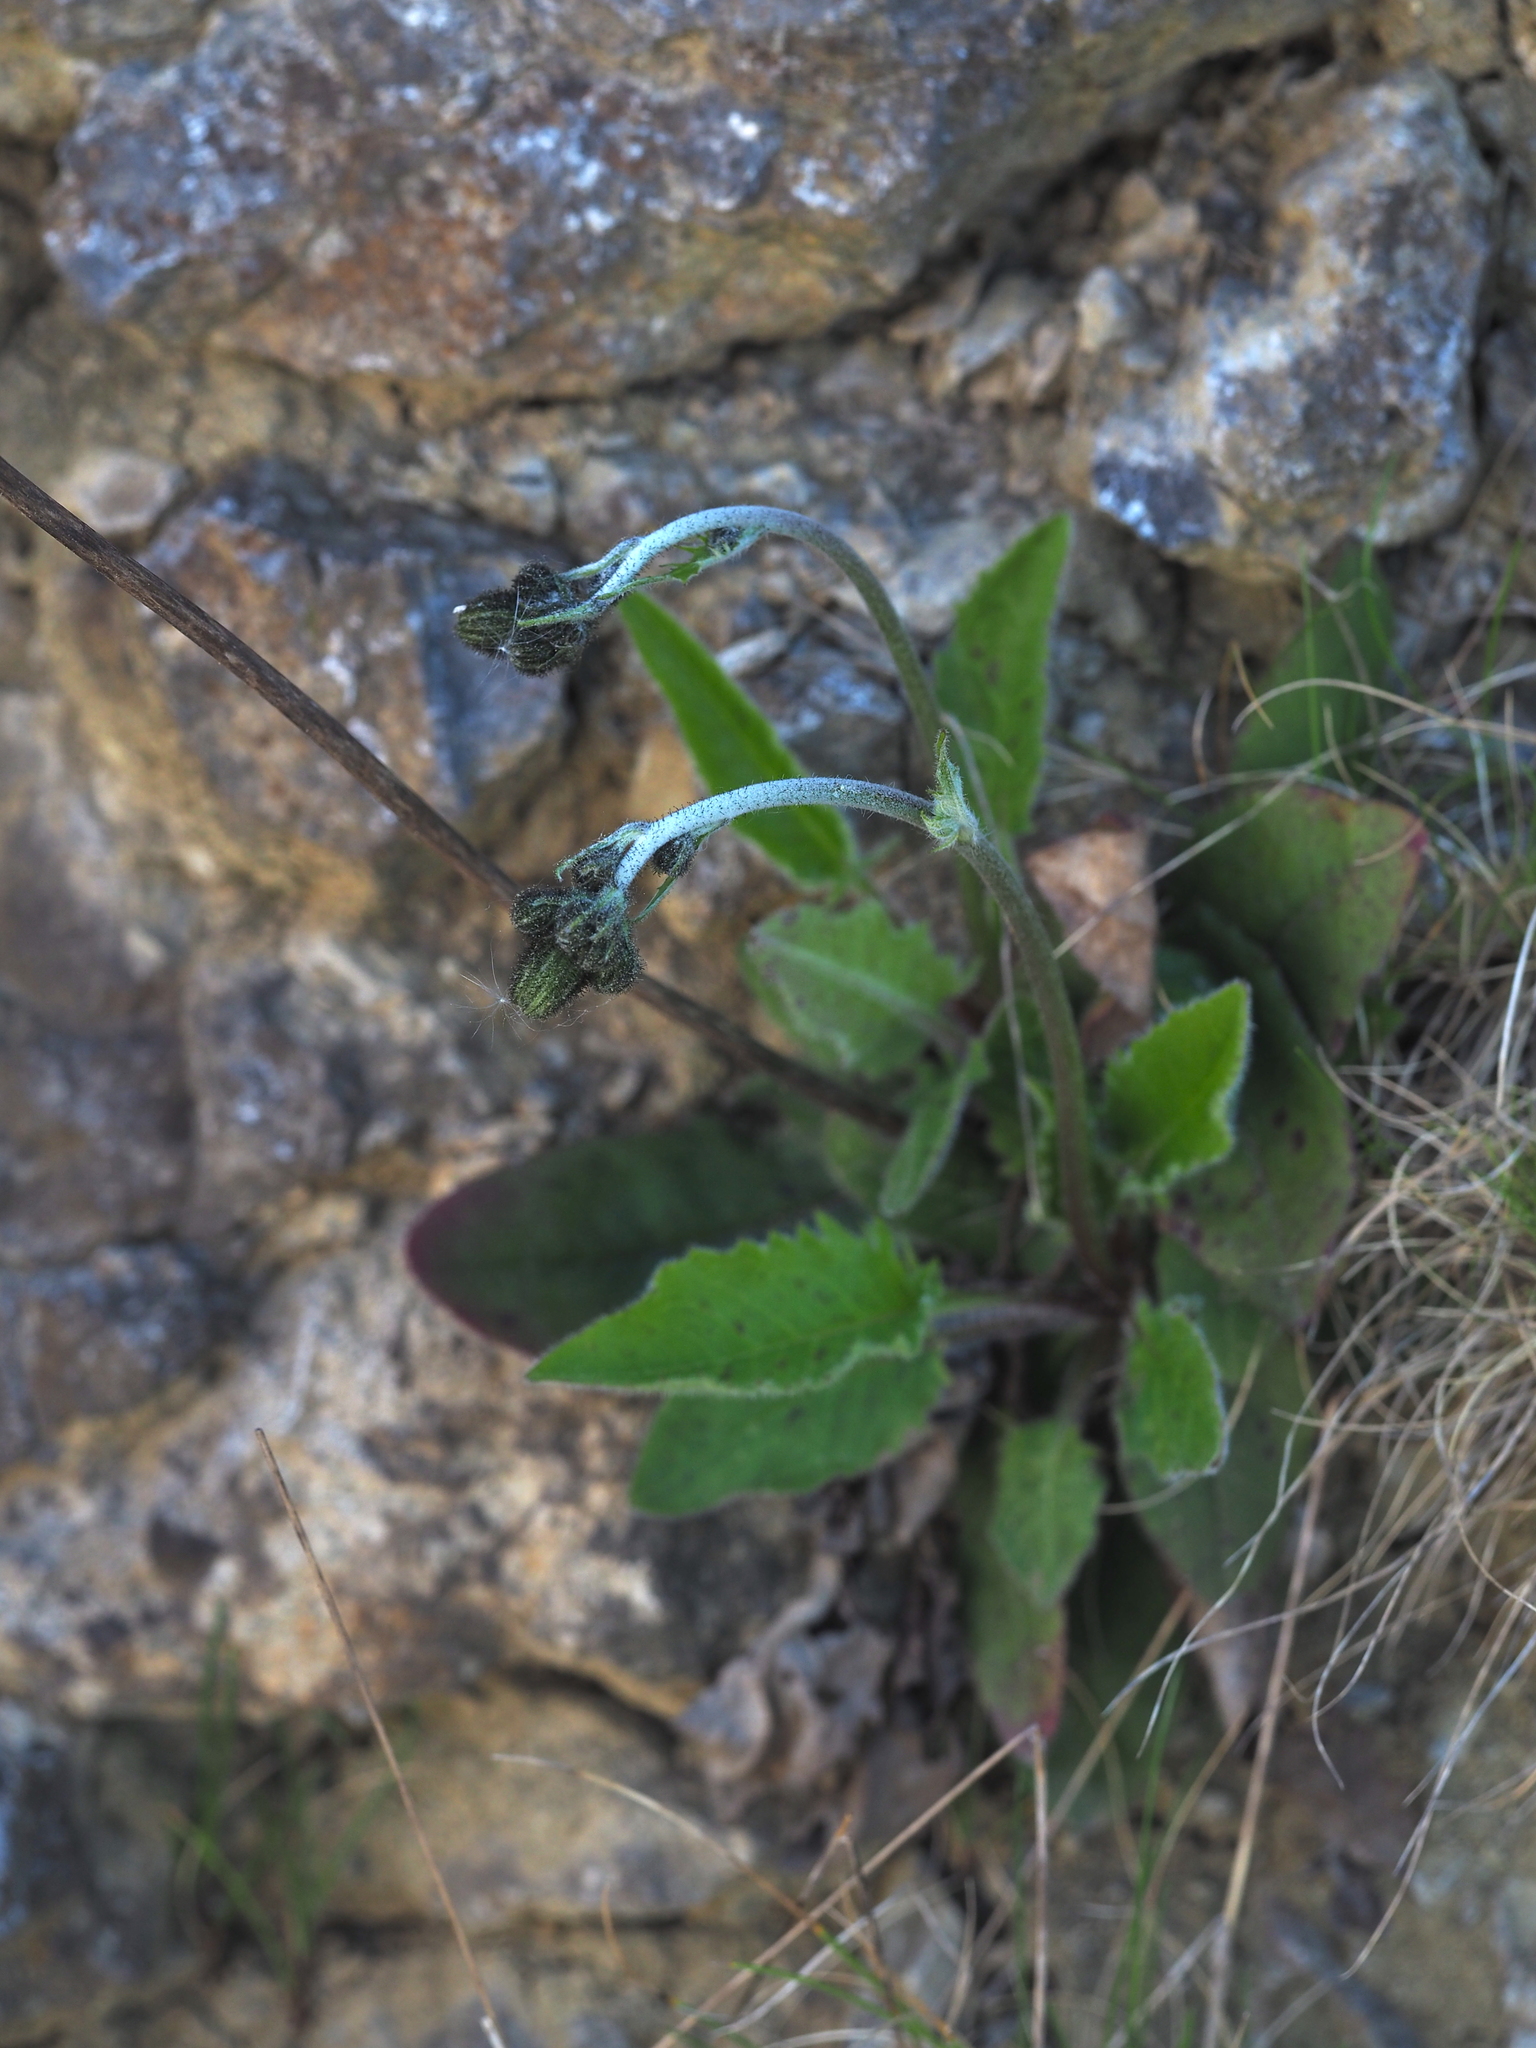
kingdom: Plantae
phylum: Tracheophyta
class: Magnoliopsida
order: Asterales
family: Asteraceae
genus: Hieracium
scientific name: Hieracium murorum
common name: Wall hawkweed
